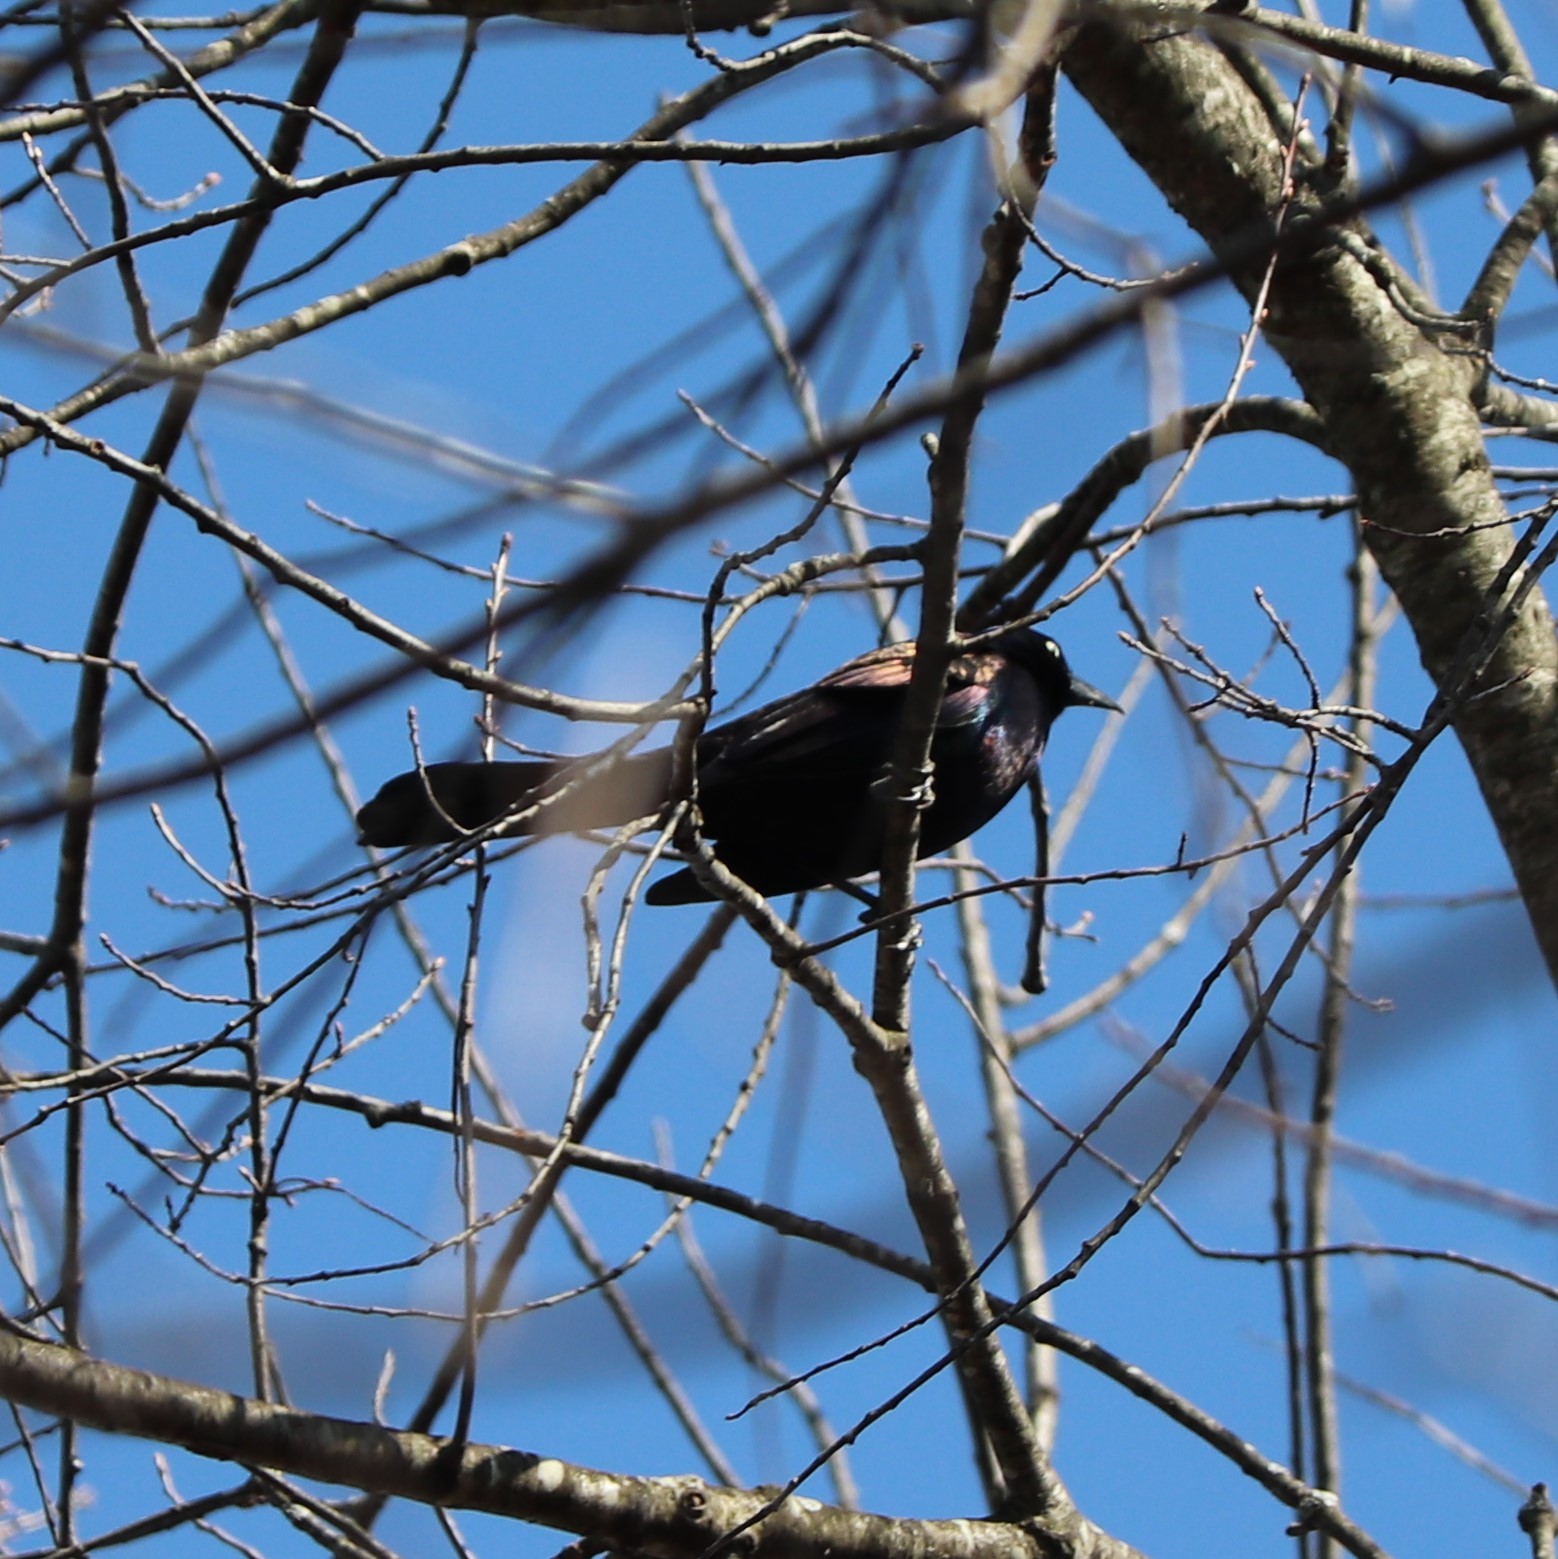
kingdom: Animalia
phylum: Chordata
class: Aves
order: Passeriformes
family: Icteridae
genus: Quiscalus
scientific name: Quiscalus quiscula
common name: Common grackle
